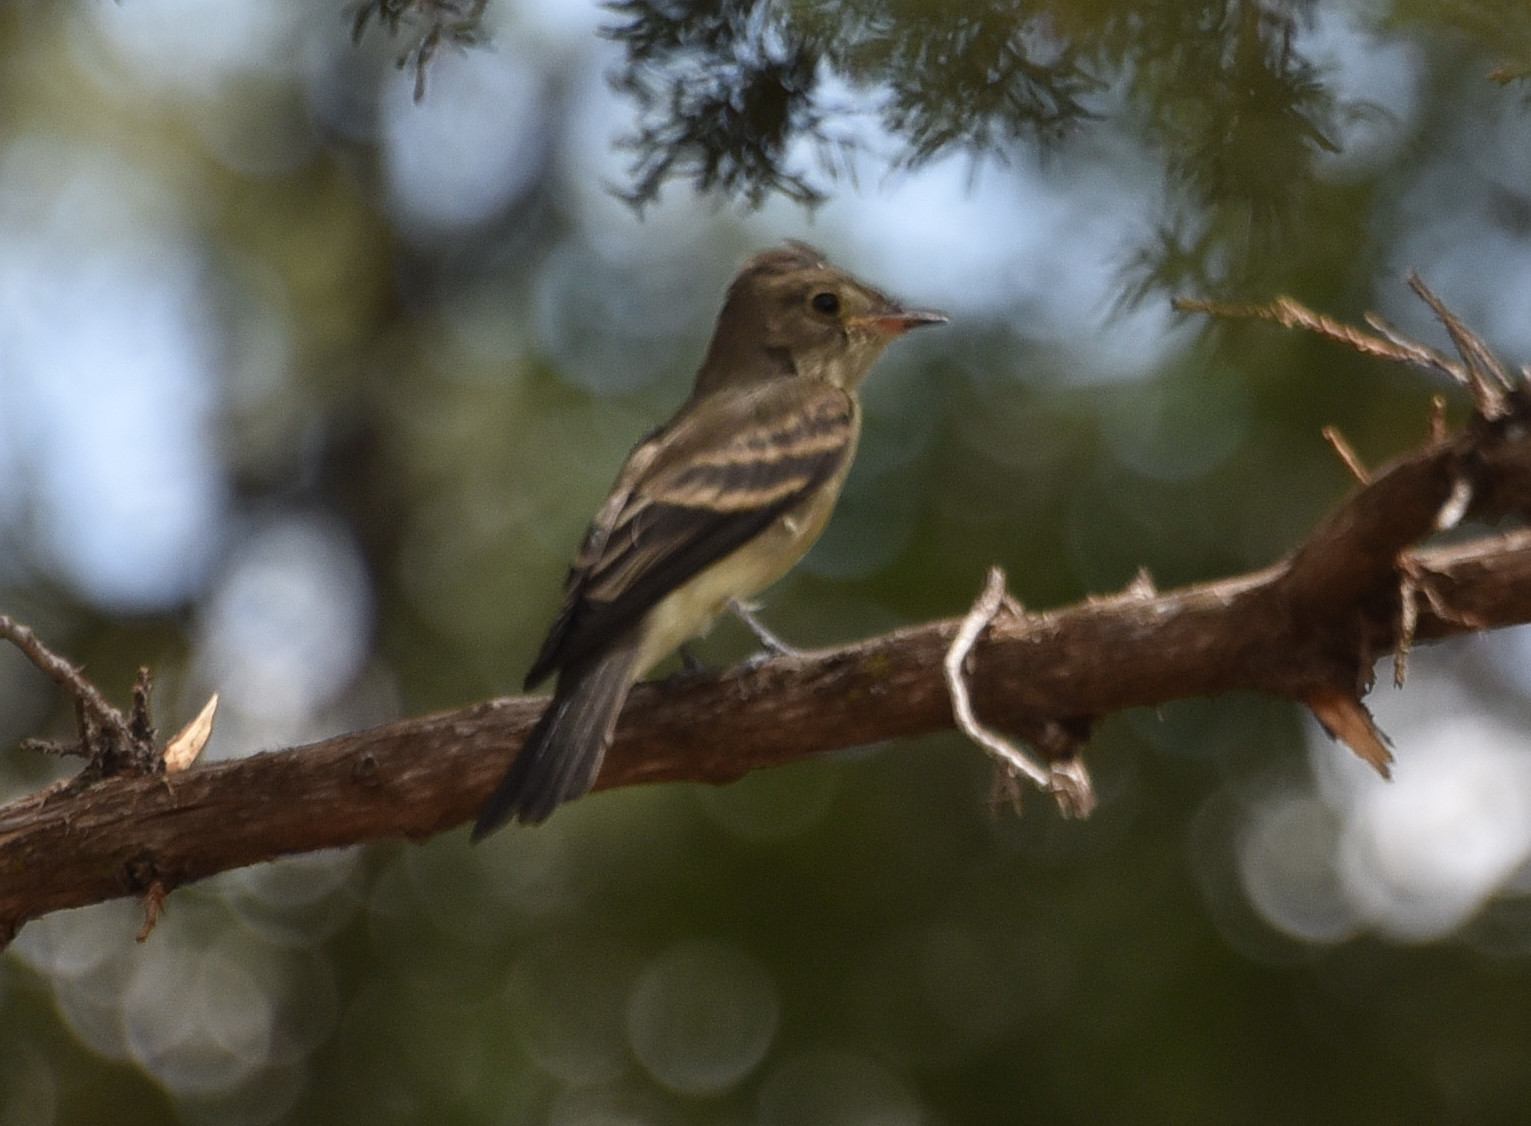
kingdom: Animalia
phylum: Chordata
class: Aves
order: Passeriformes
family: Tyrannidae
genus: Contopus
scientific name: Contopus sordidulus
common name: Western wood-pewee
